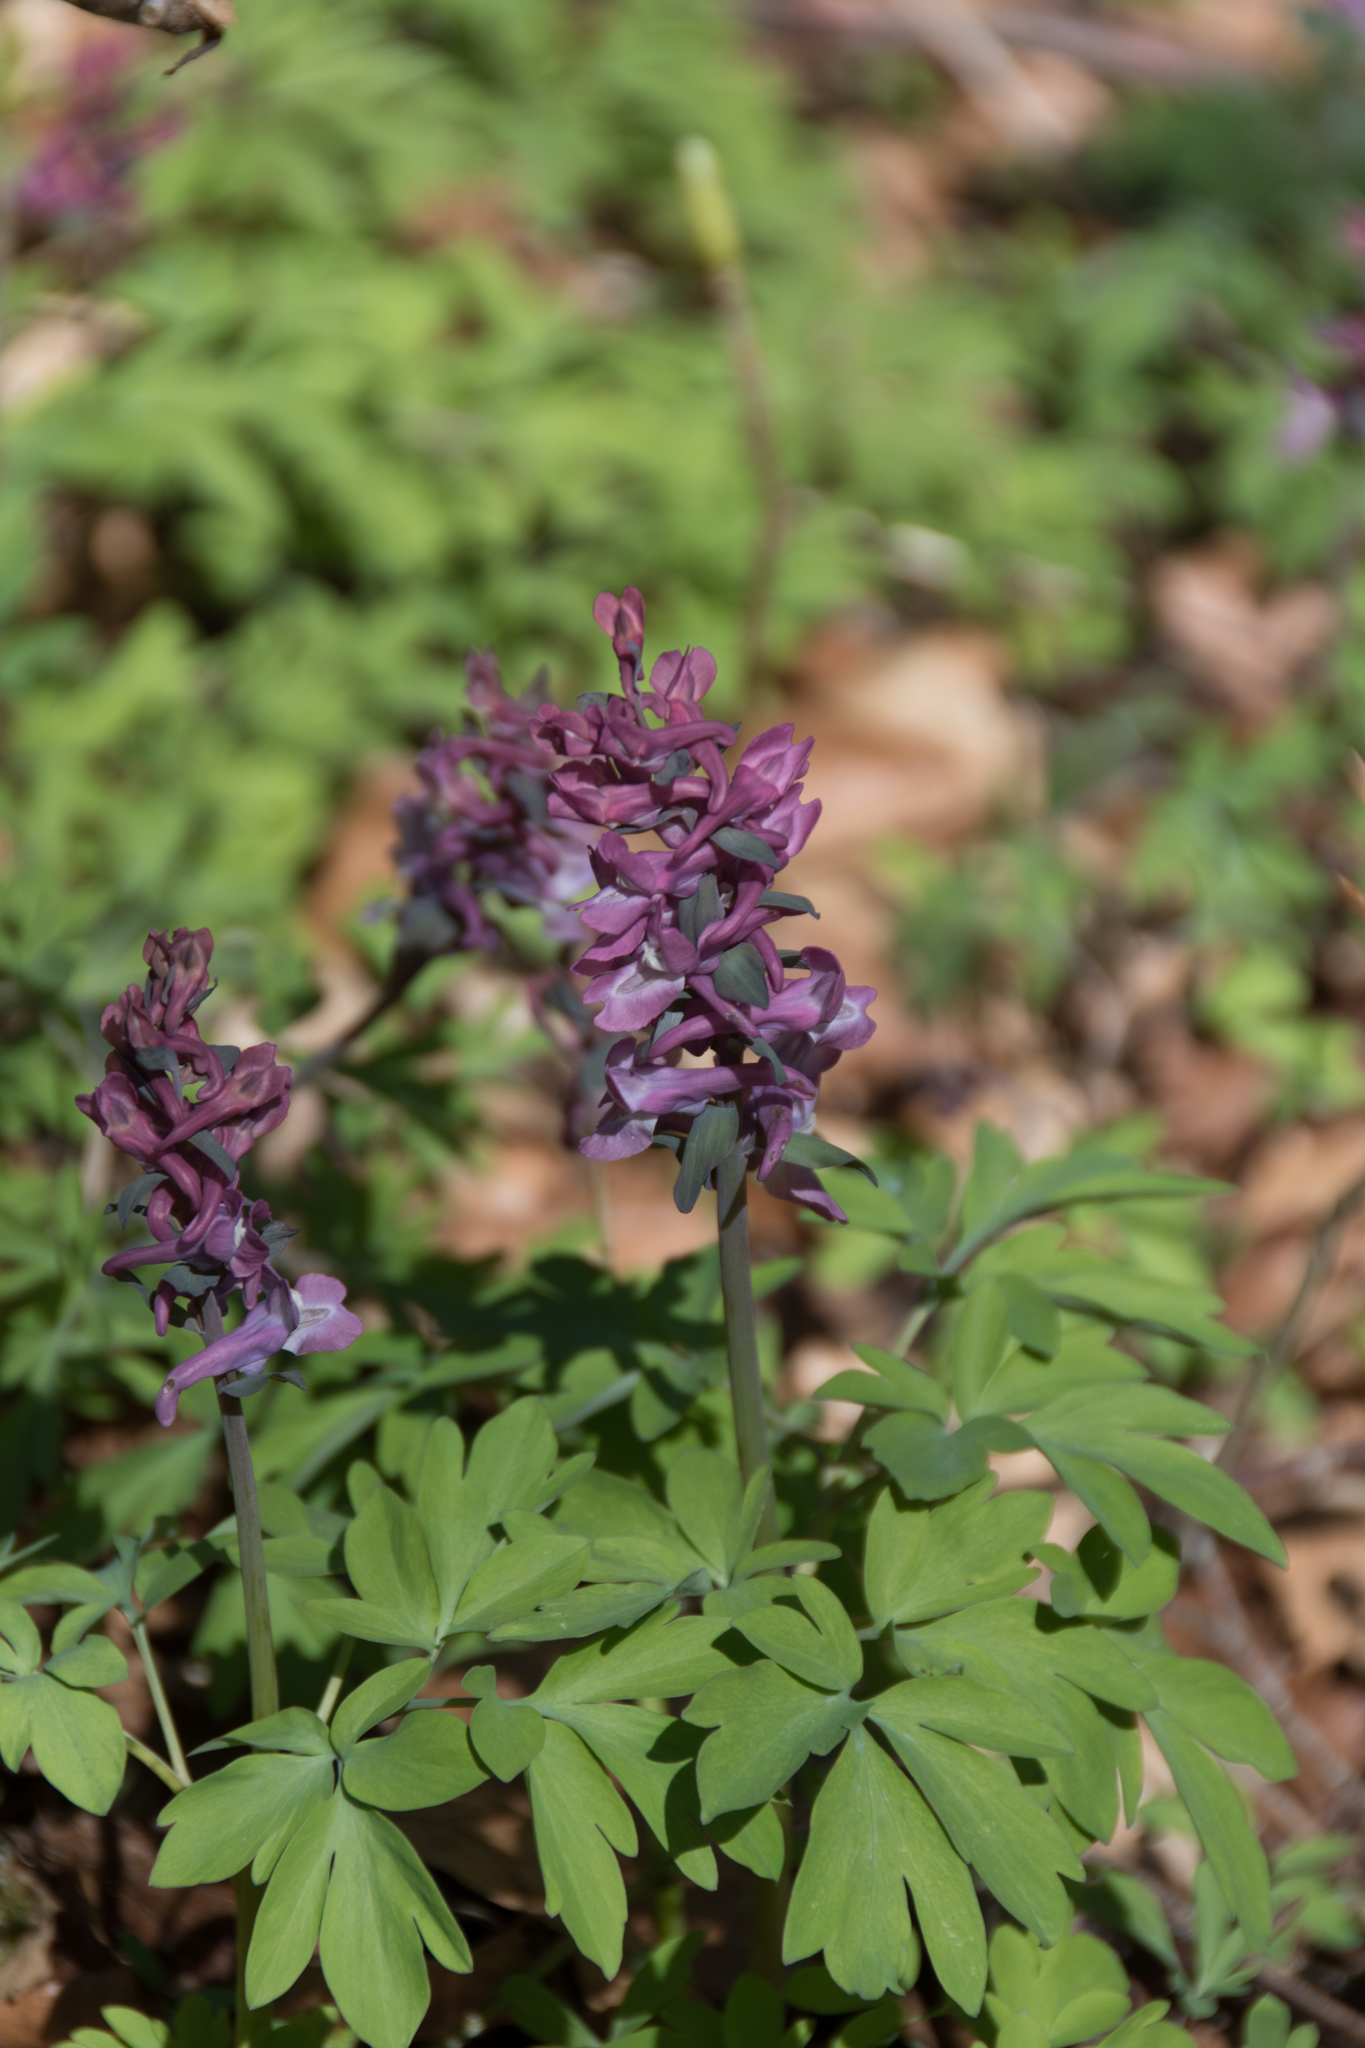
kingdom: Plantae
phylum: Tracheophyta
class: Magnoliopsida
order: Ranunculales
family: Papaveraceae
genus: Corydalis
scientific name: Corydalis cava
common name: Hollowroot
